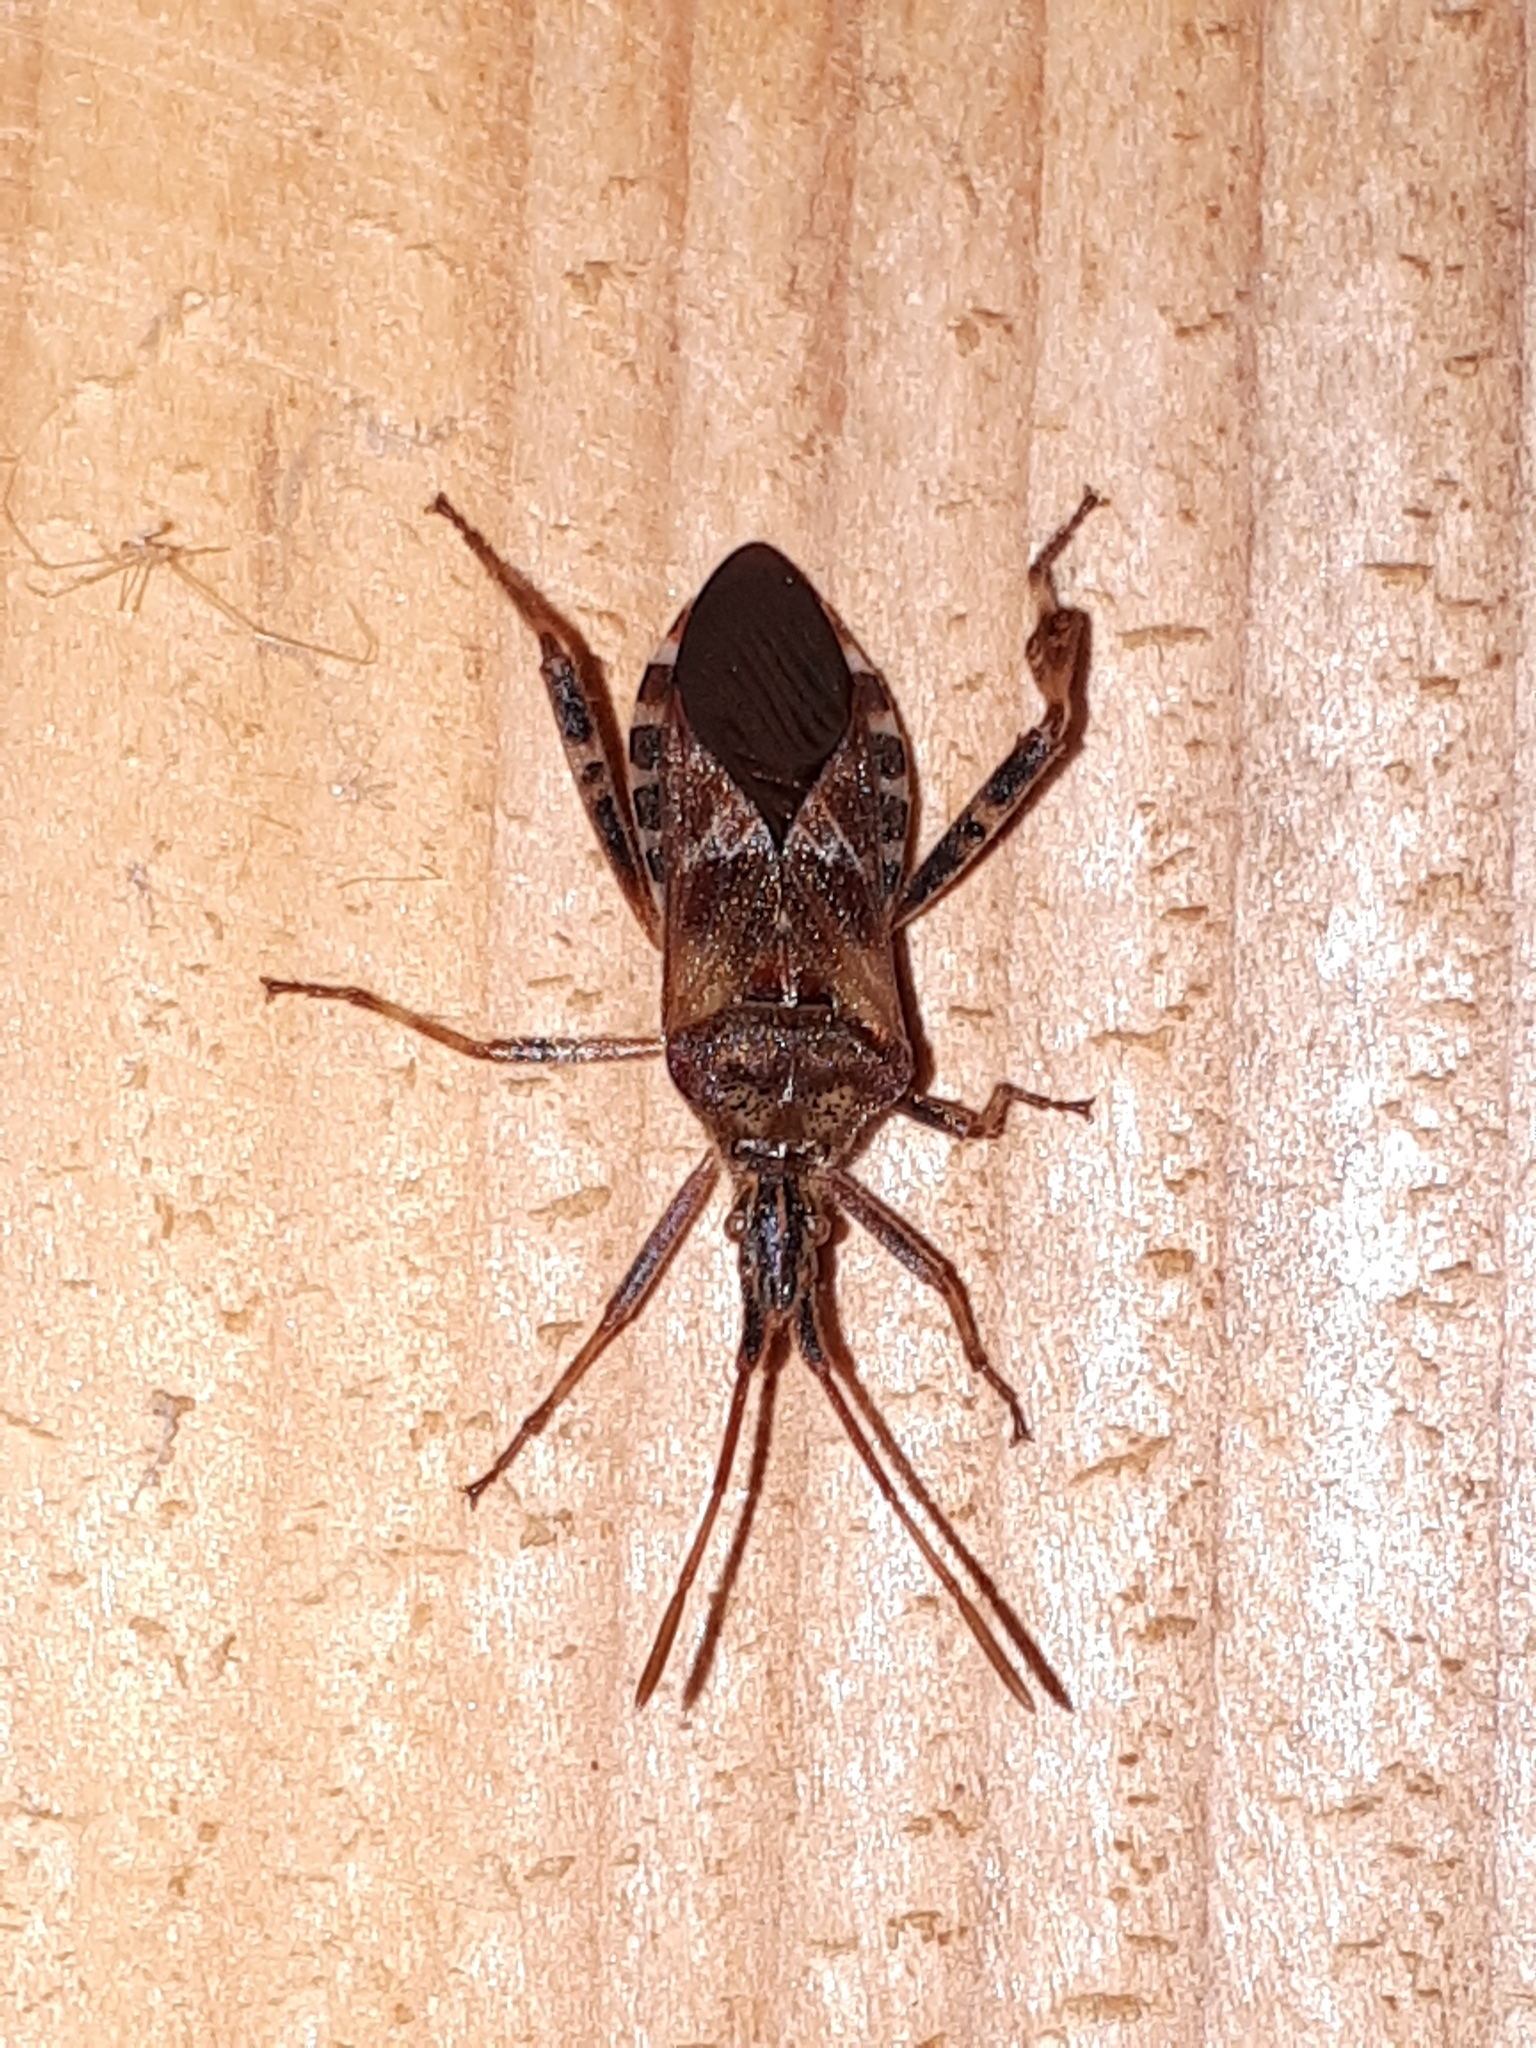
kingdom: Animalia
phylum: Arthropoda
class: Insecta
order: Hemiptera
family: Coreidae
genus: Leptoglossus
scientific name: Leptoglossus occidentalis
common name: Western conifer-seed bug
